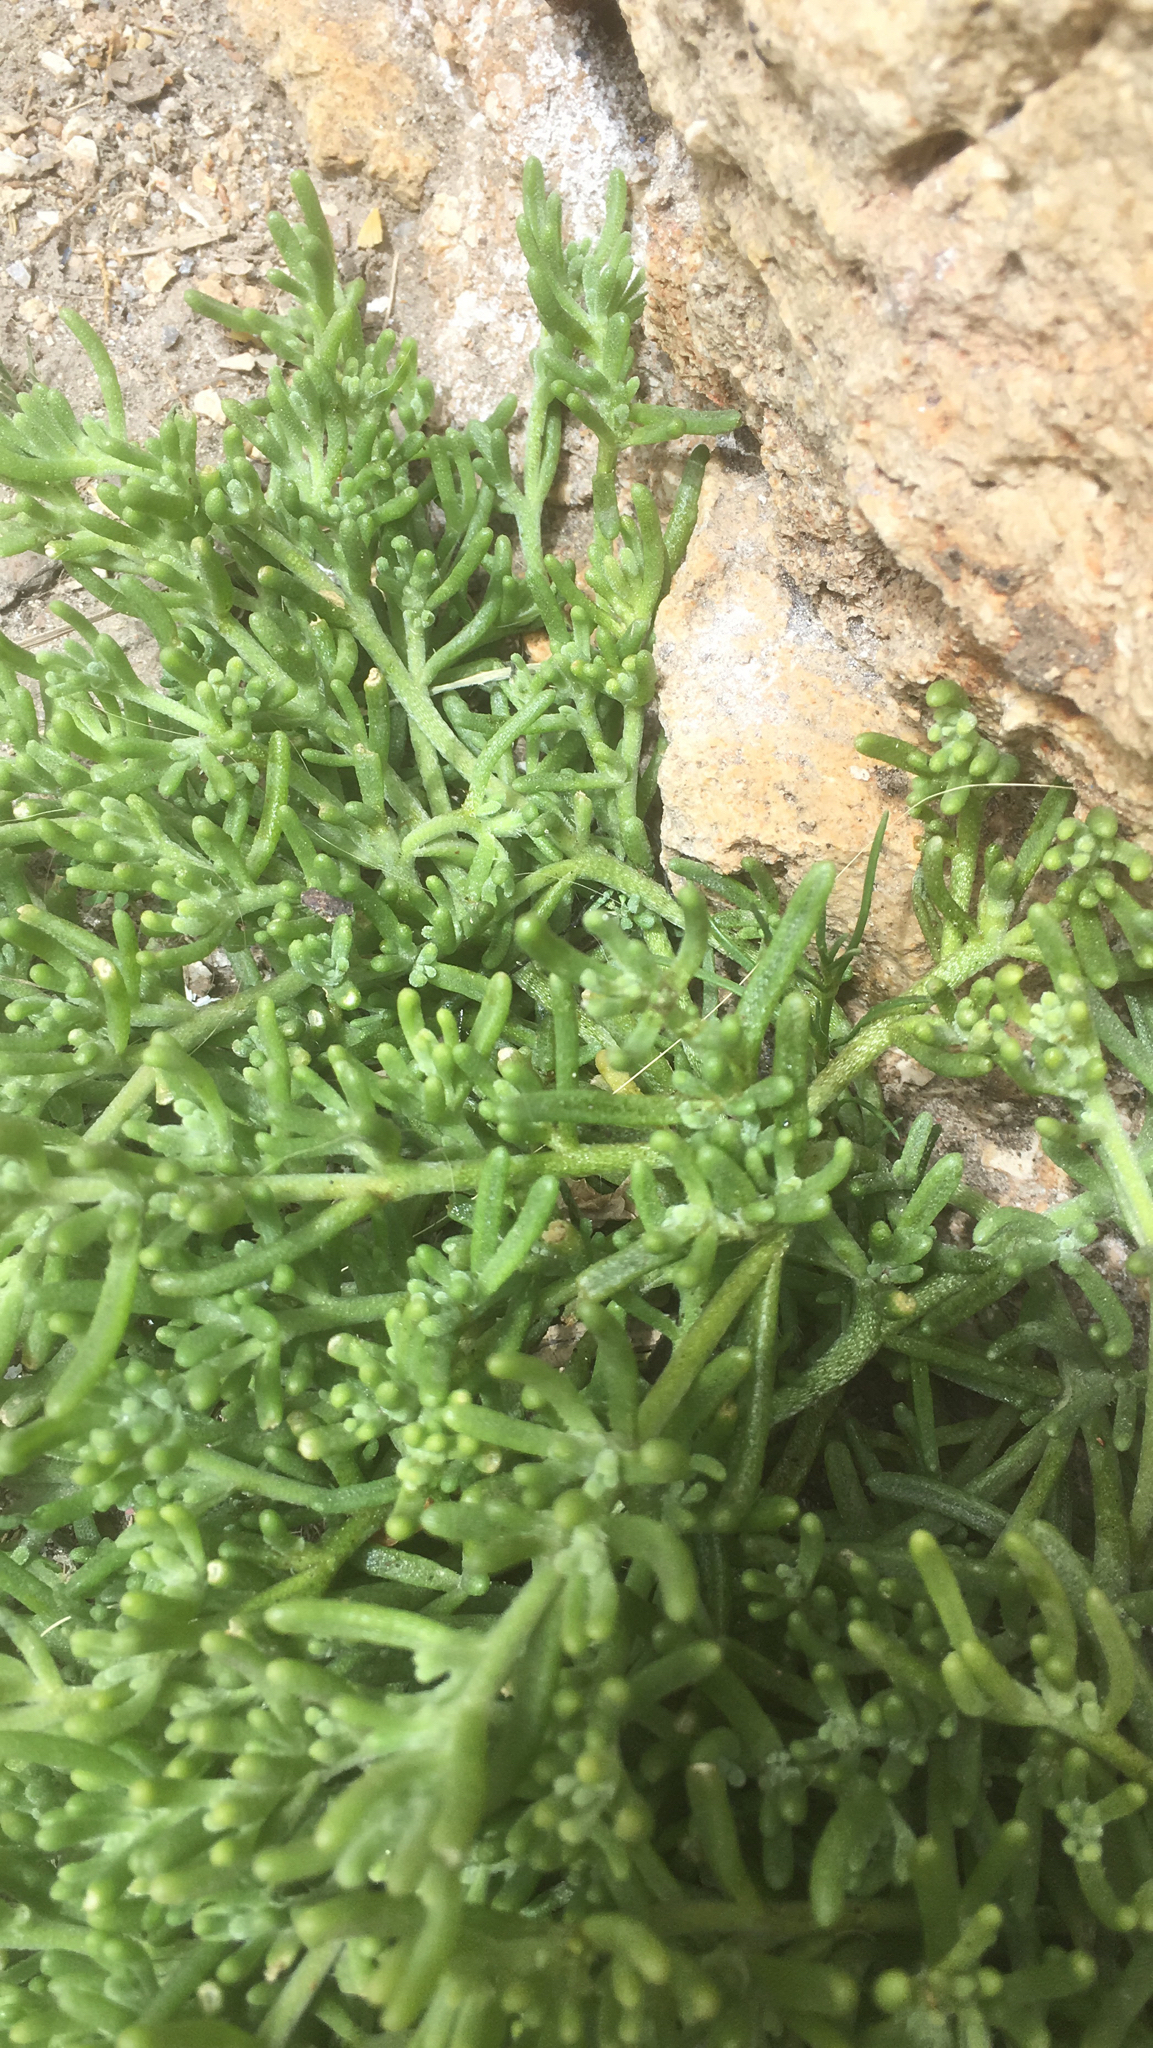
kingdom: Plantae
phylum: Tracheophyta
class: Magnoliopsida
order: Caryophyllales
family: Aizoaceae
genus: Mesembryanthemum
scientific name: Mesembryanthemum nodiflorum
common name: Slenderleaf iceplant
